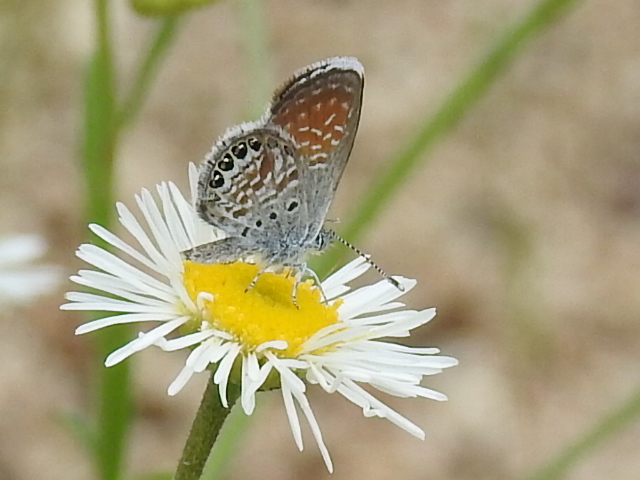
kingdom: Animalia
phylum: Arthropoda
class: Insecta
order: Lepidoptera
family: Lycaenidae
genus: Brephidium
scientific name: Brephidium exilis
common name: Pygmy blue
